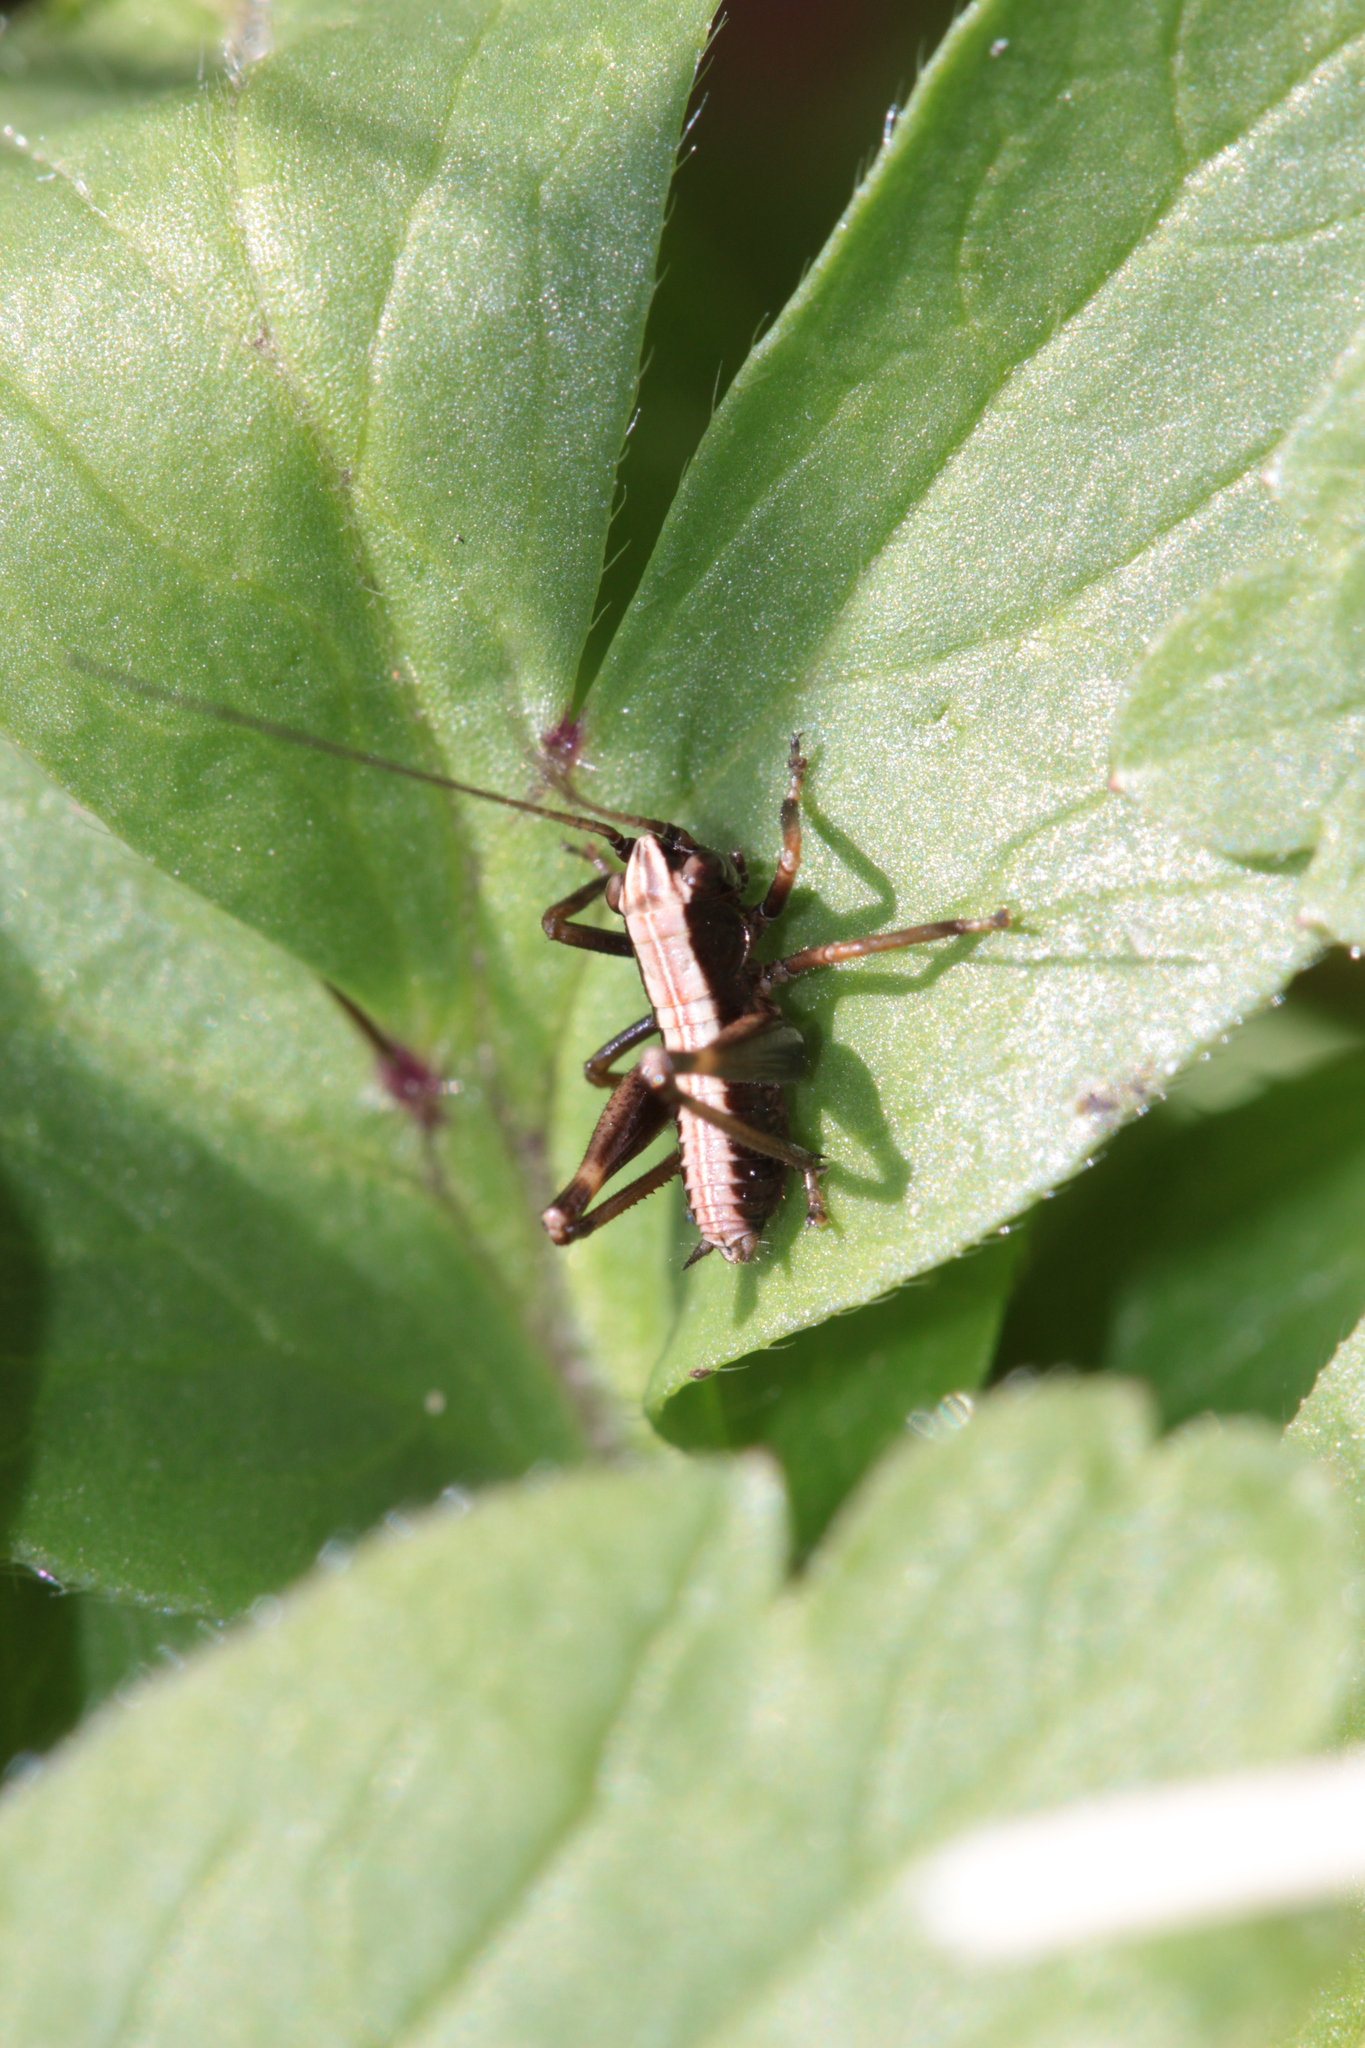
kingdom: Animalia
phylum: Arthropoda
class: Insecta
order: Orthoptera
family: Tettigoniidae
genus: Pholidoptera
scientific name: Pholidoptera griseoaptera
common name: Dark bush-cricket
